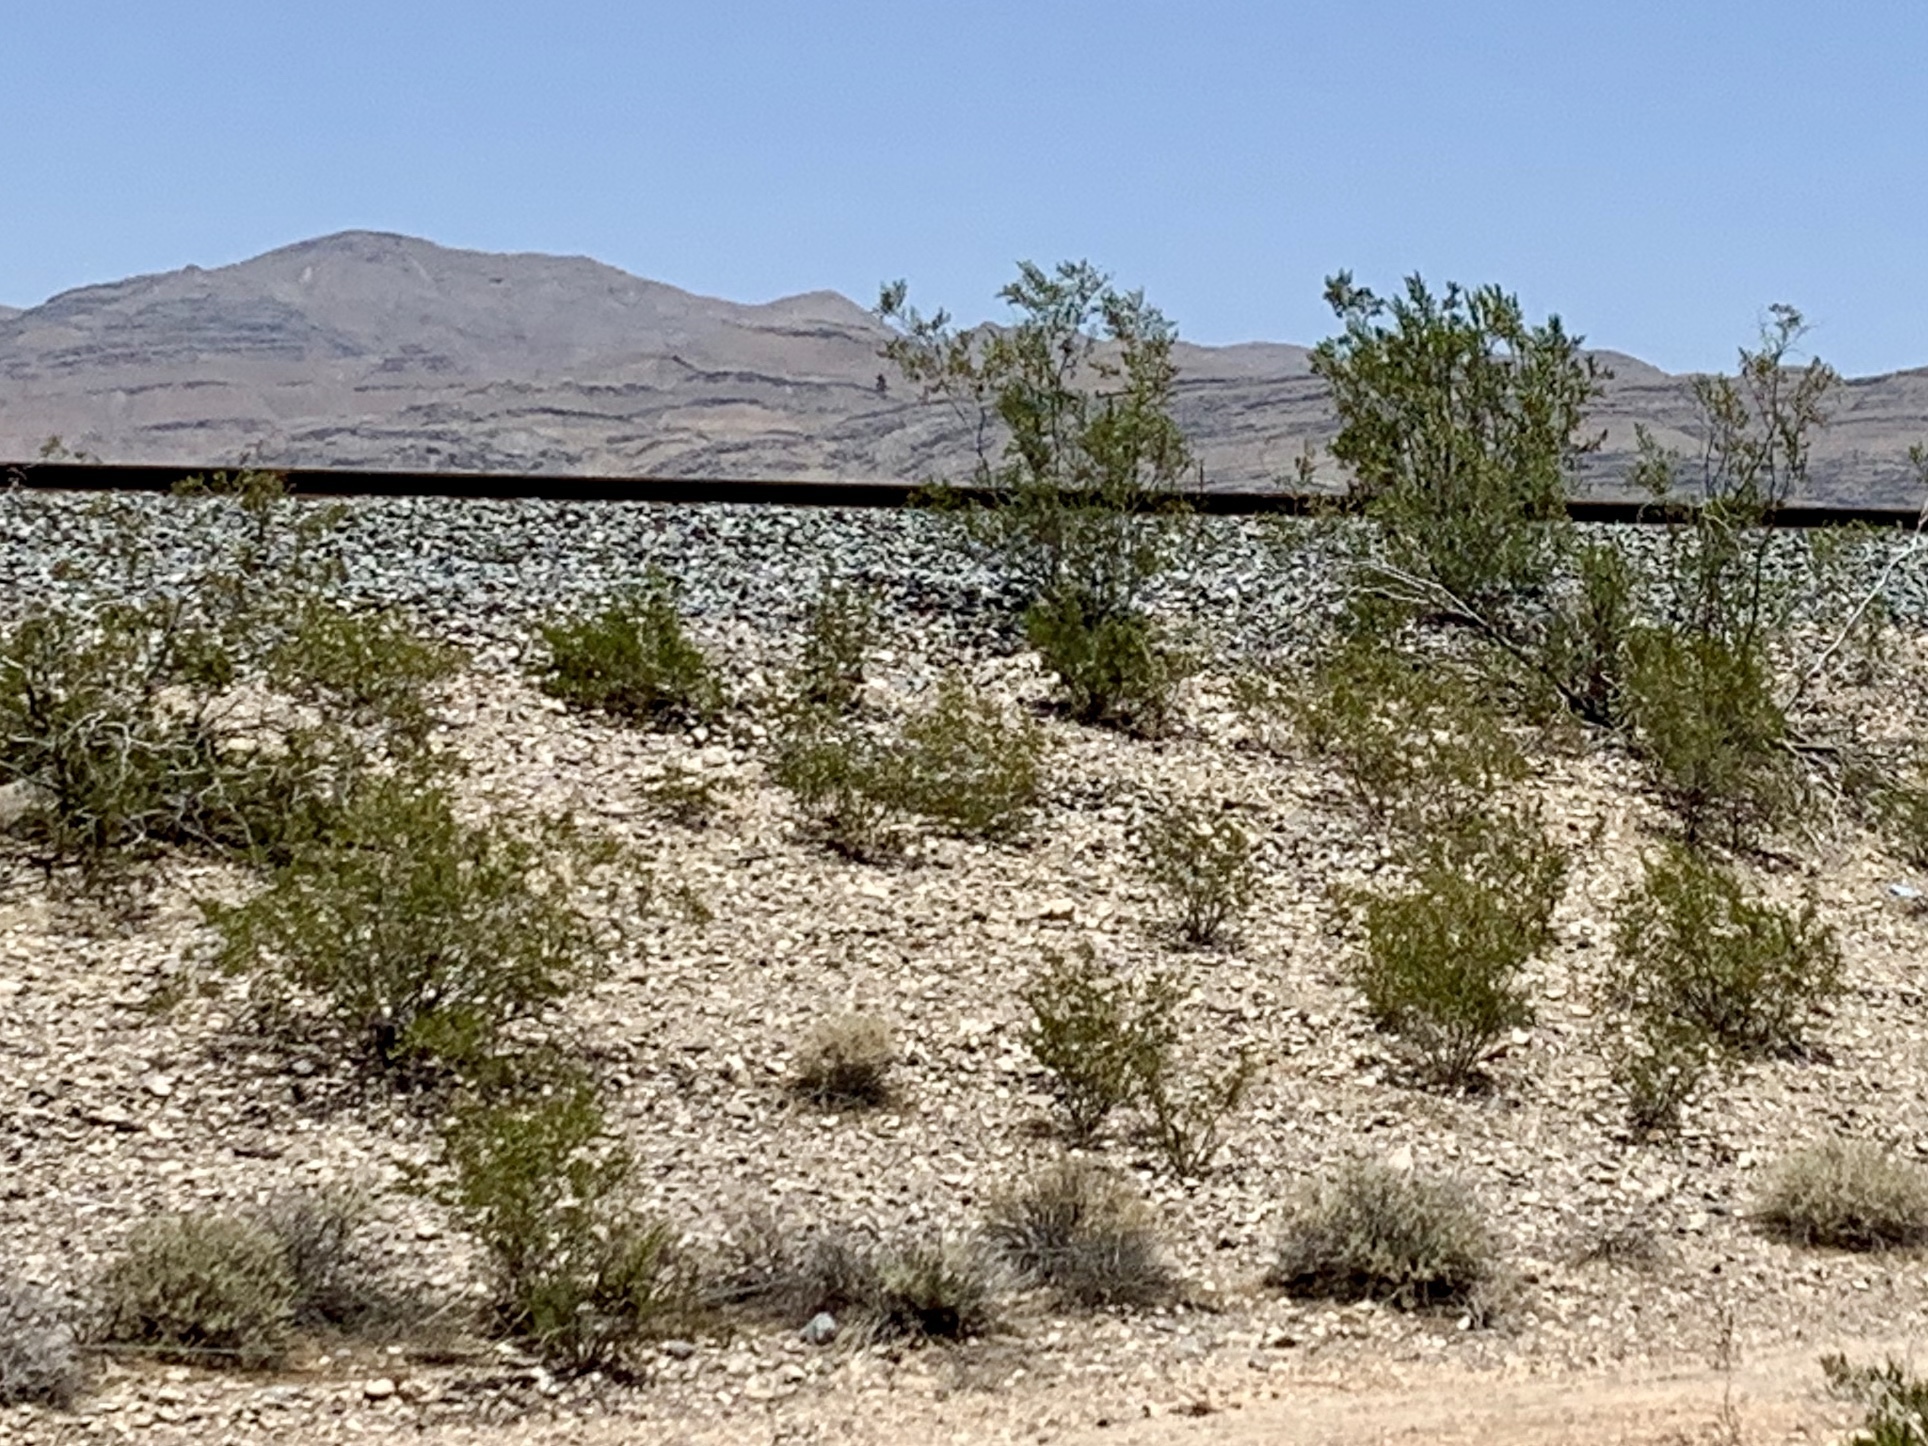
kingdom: Plantae
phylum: Tracheophyta
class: Magnoliopsida
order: Zygophyllales
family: Zygophyllaceae
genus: Larrea
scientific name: Larrea tridentata
